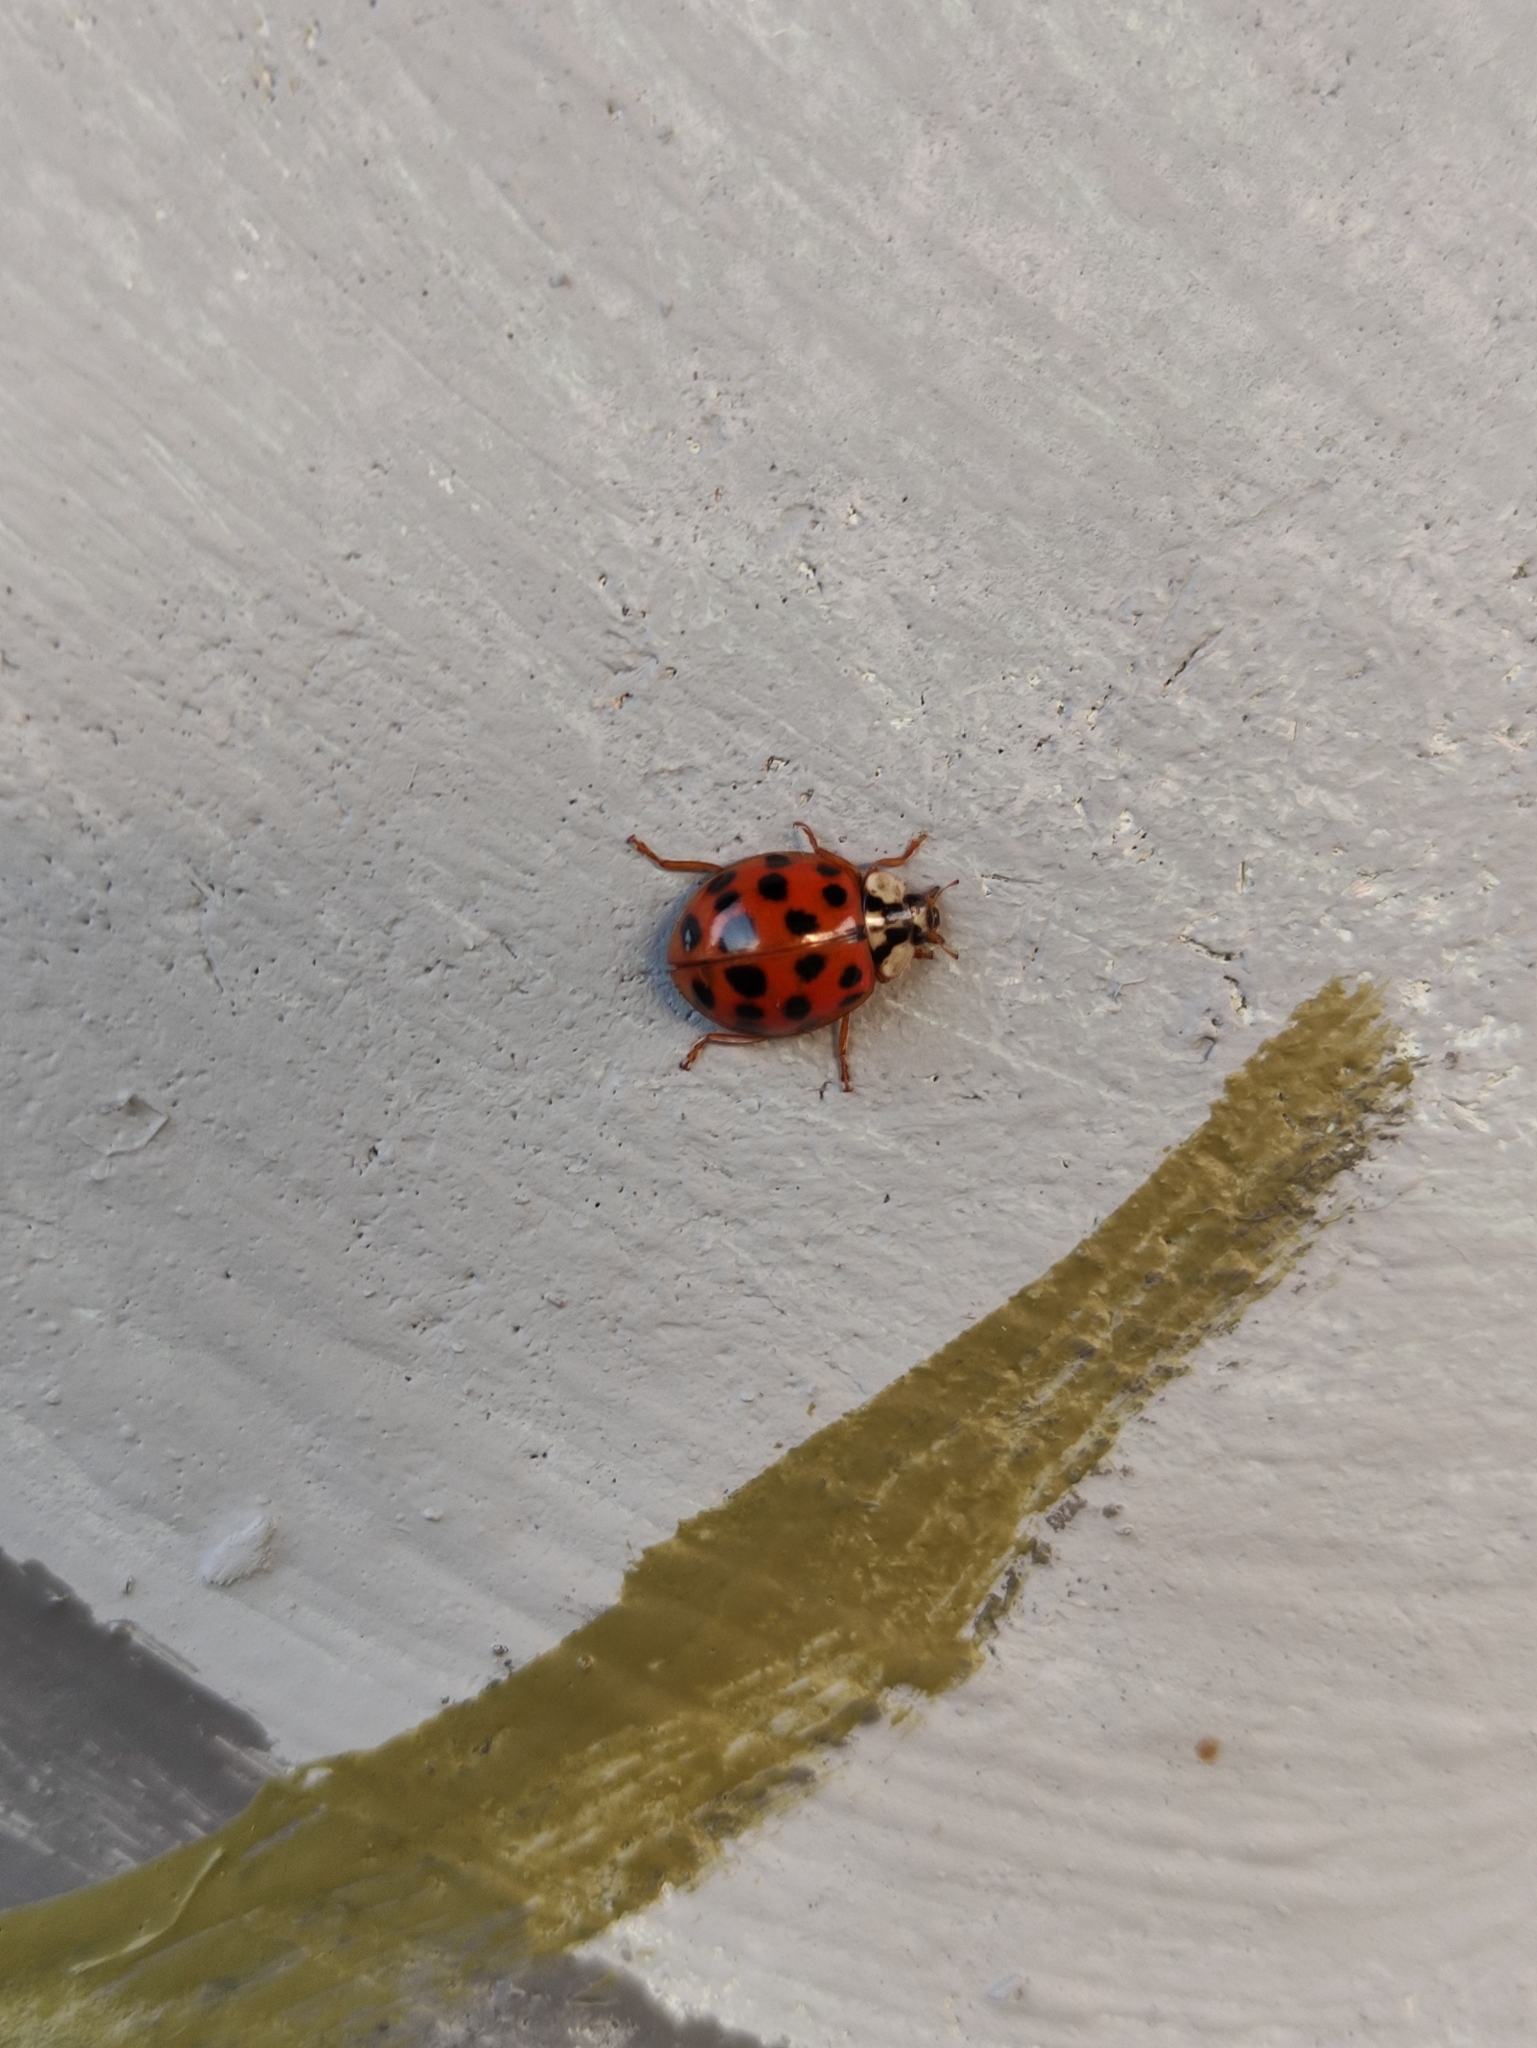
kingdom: Animalia
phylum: Arthropoda
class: Insecta
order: Coleoptera
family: Coccinellidae
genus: Harmonia
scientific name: Harmonia axyridis
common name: Harlequin ladybird
